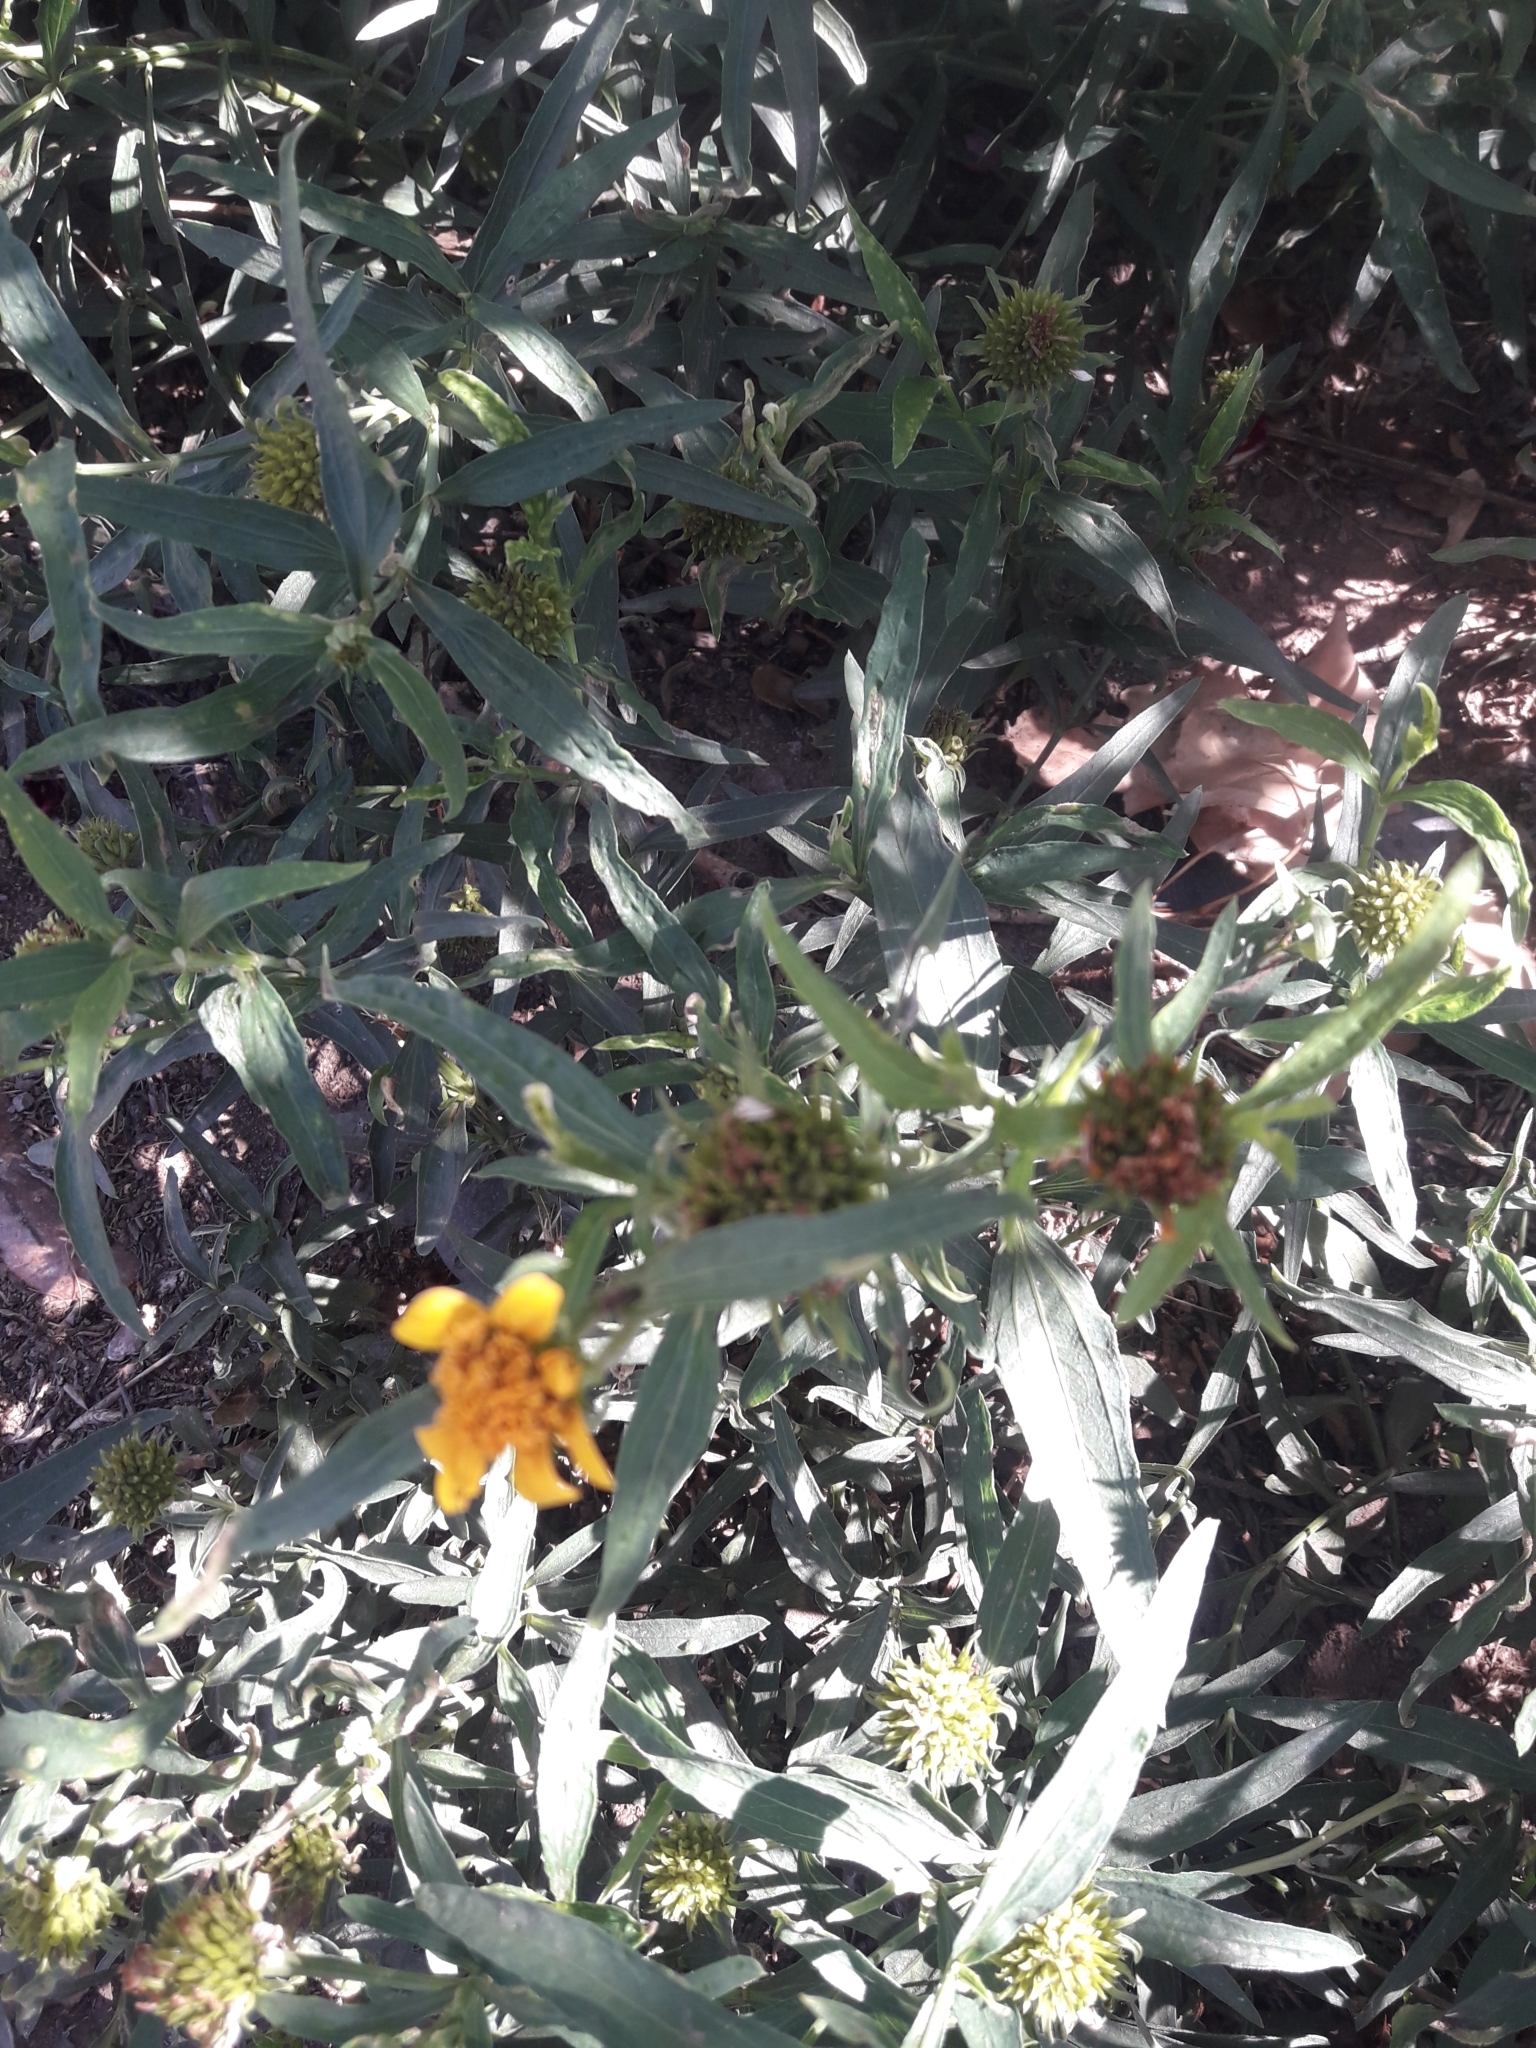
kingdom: Plantae
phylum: Tracheophyta
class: Magnoliopsida
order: Asterales
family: Asteraceae
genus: Pascalia
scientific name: Pascalia glauca
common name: Beach creeping oxeye
